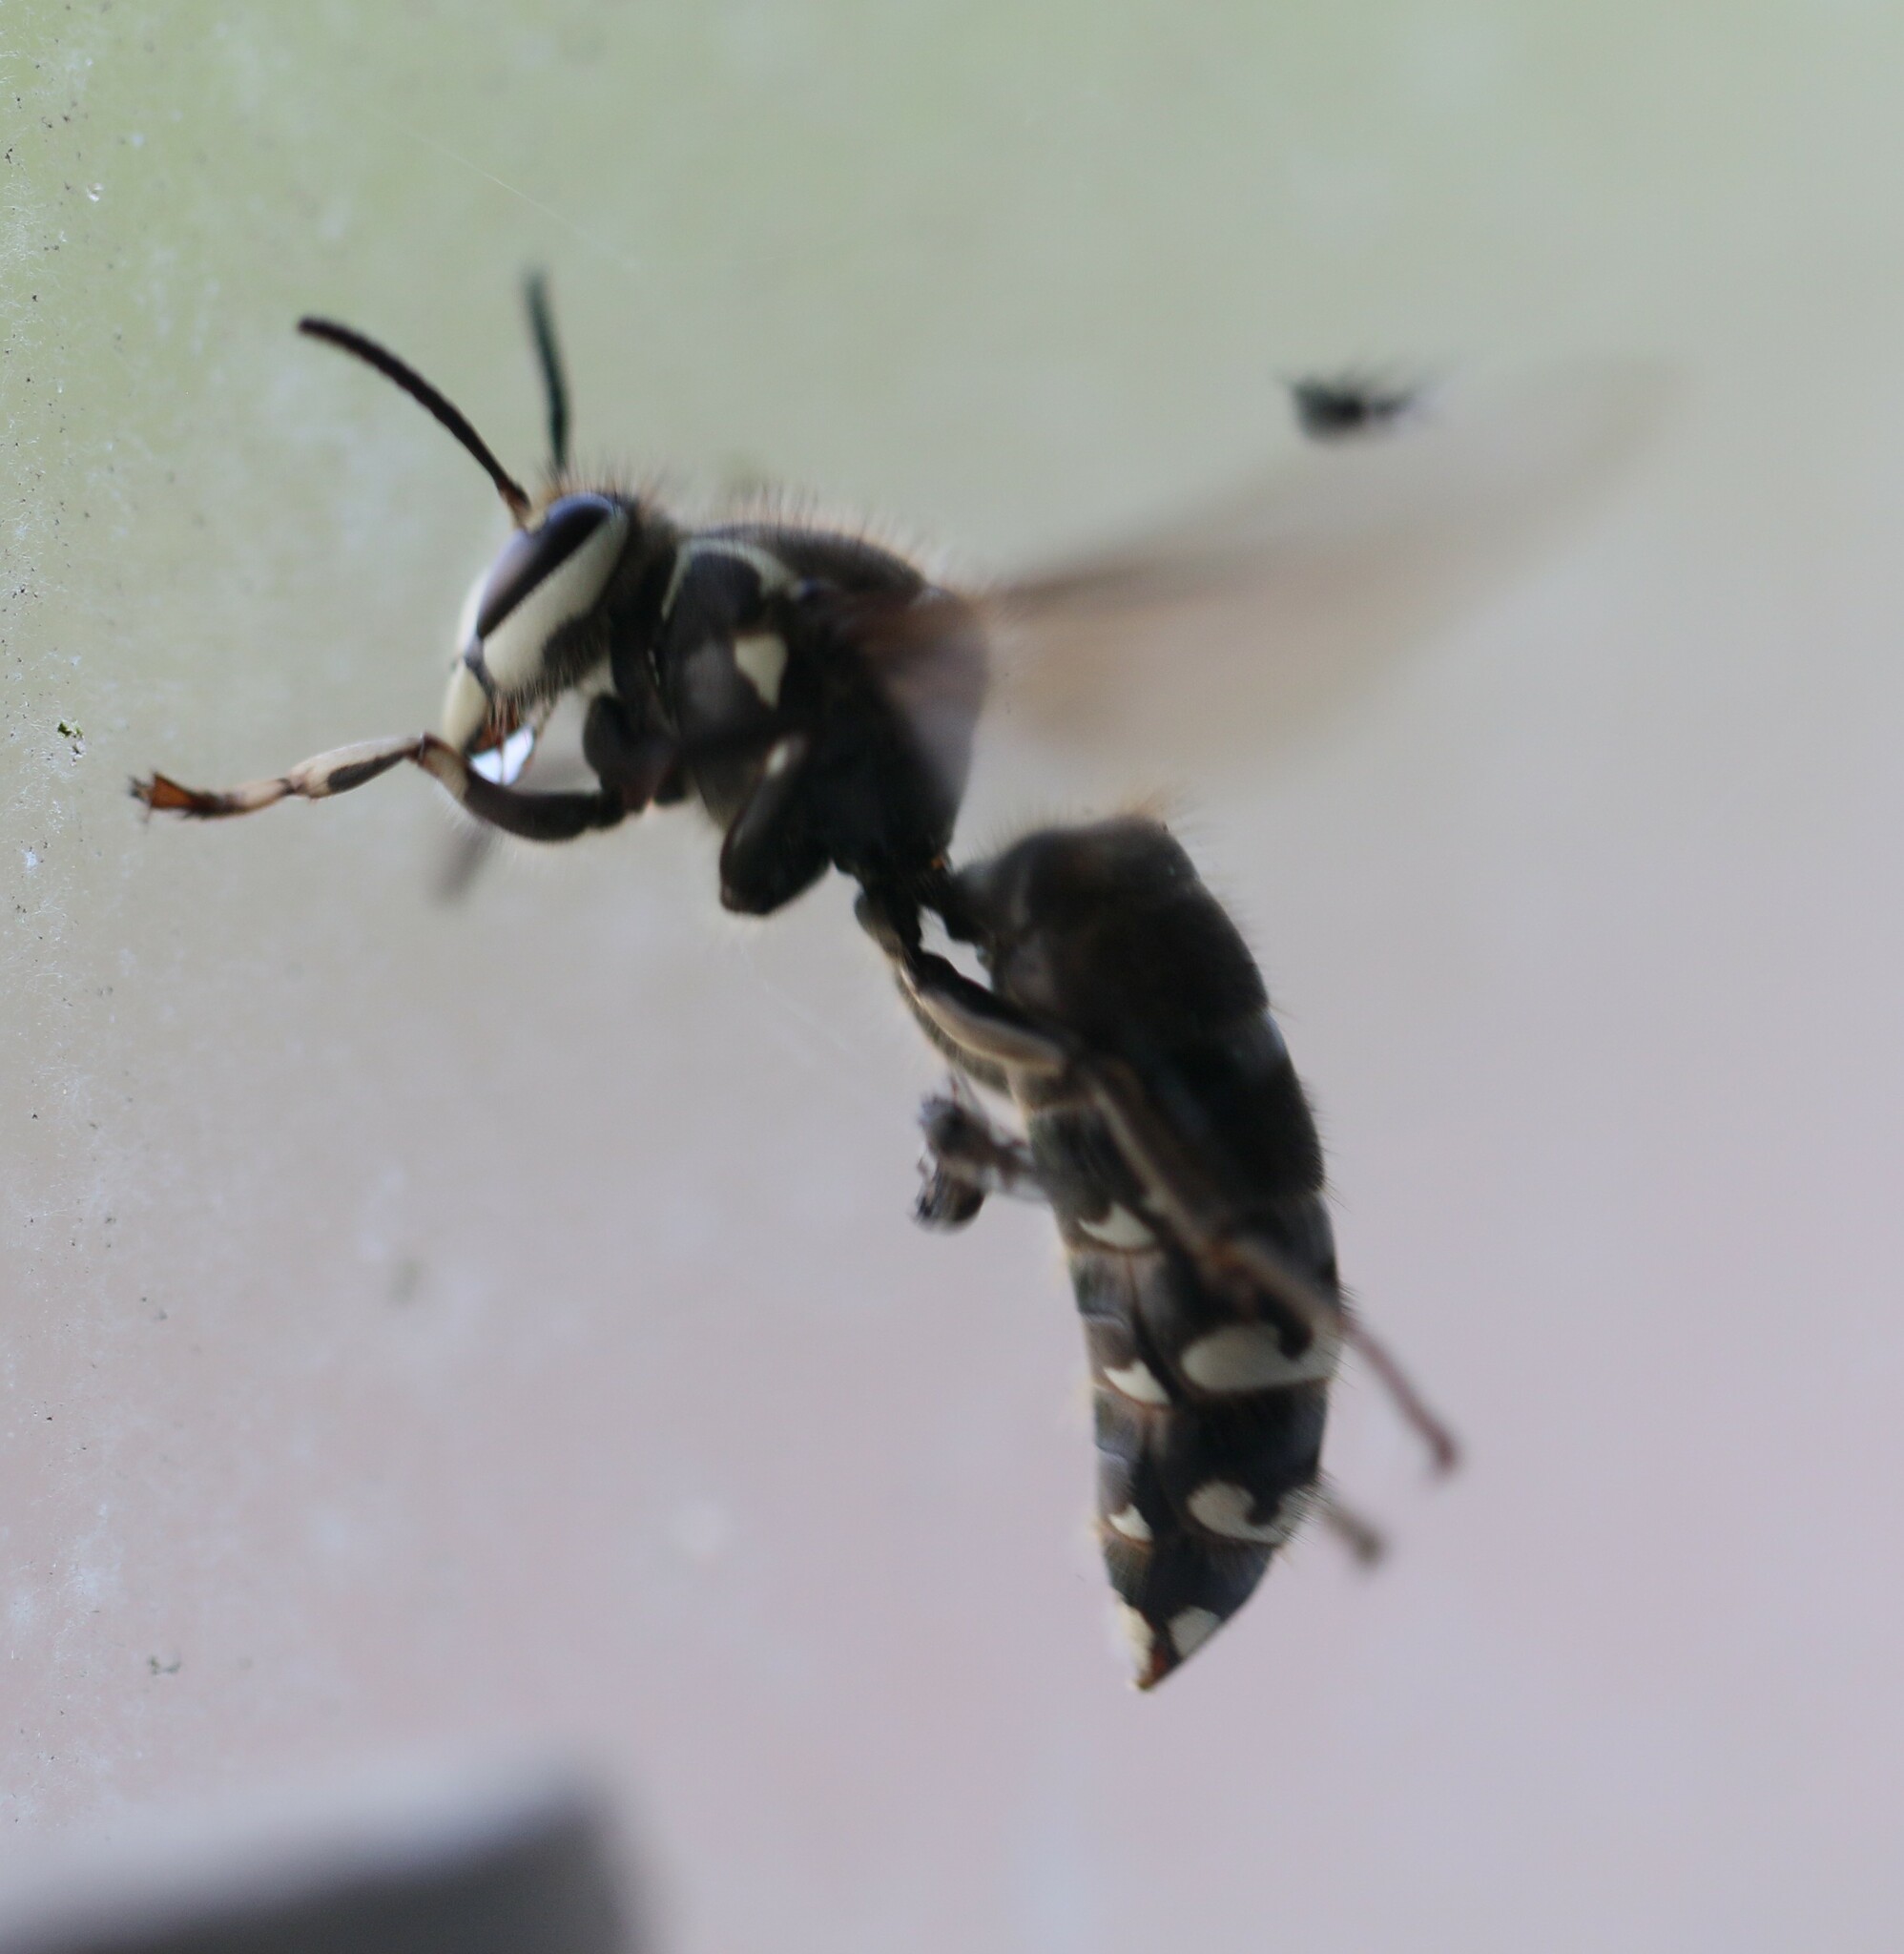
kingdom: Animalia
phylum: Arthropoda
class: Insecta
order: Hymenoptera
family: Vespidae
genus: Dolichovespula
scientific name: Dolichovespula maculata
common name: Bald-faced hornet
